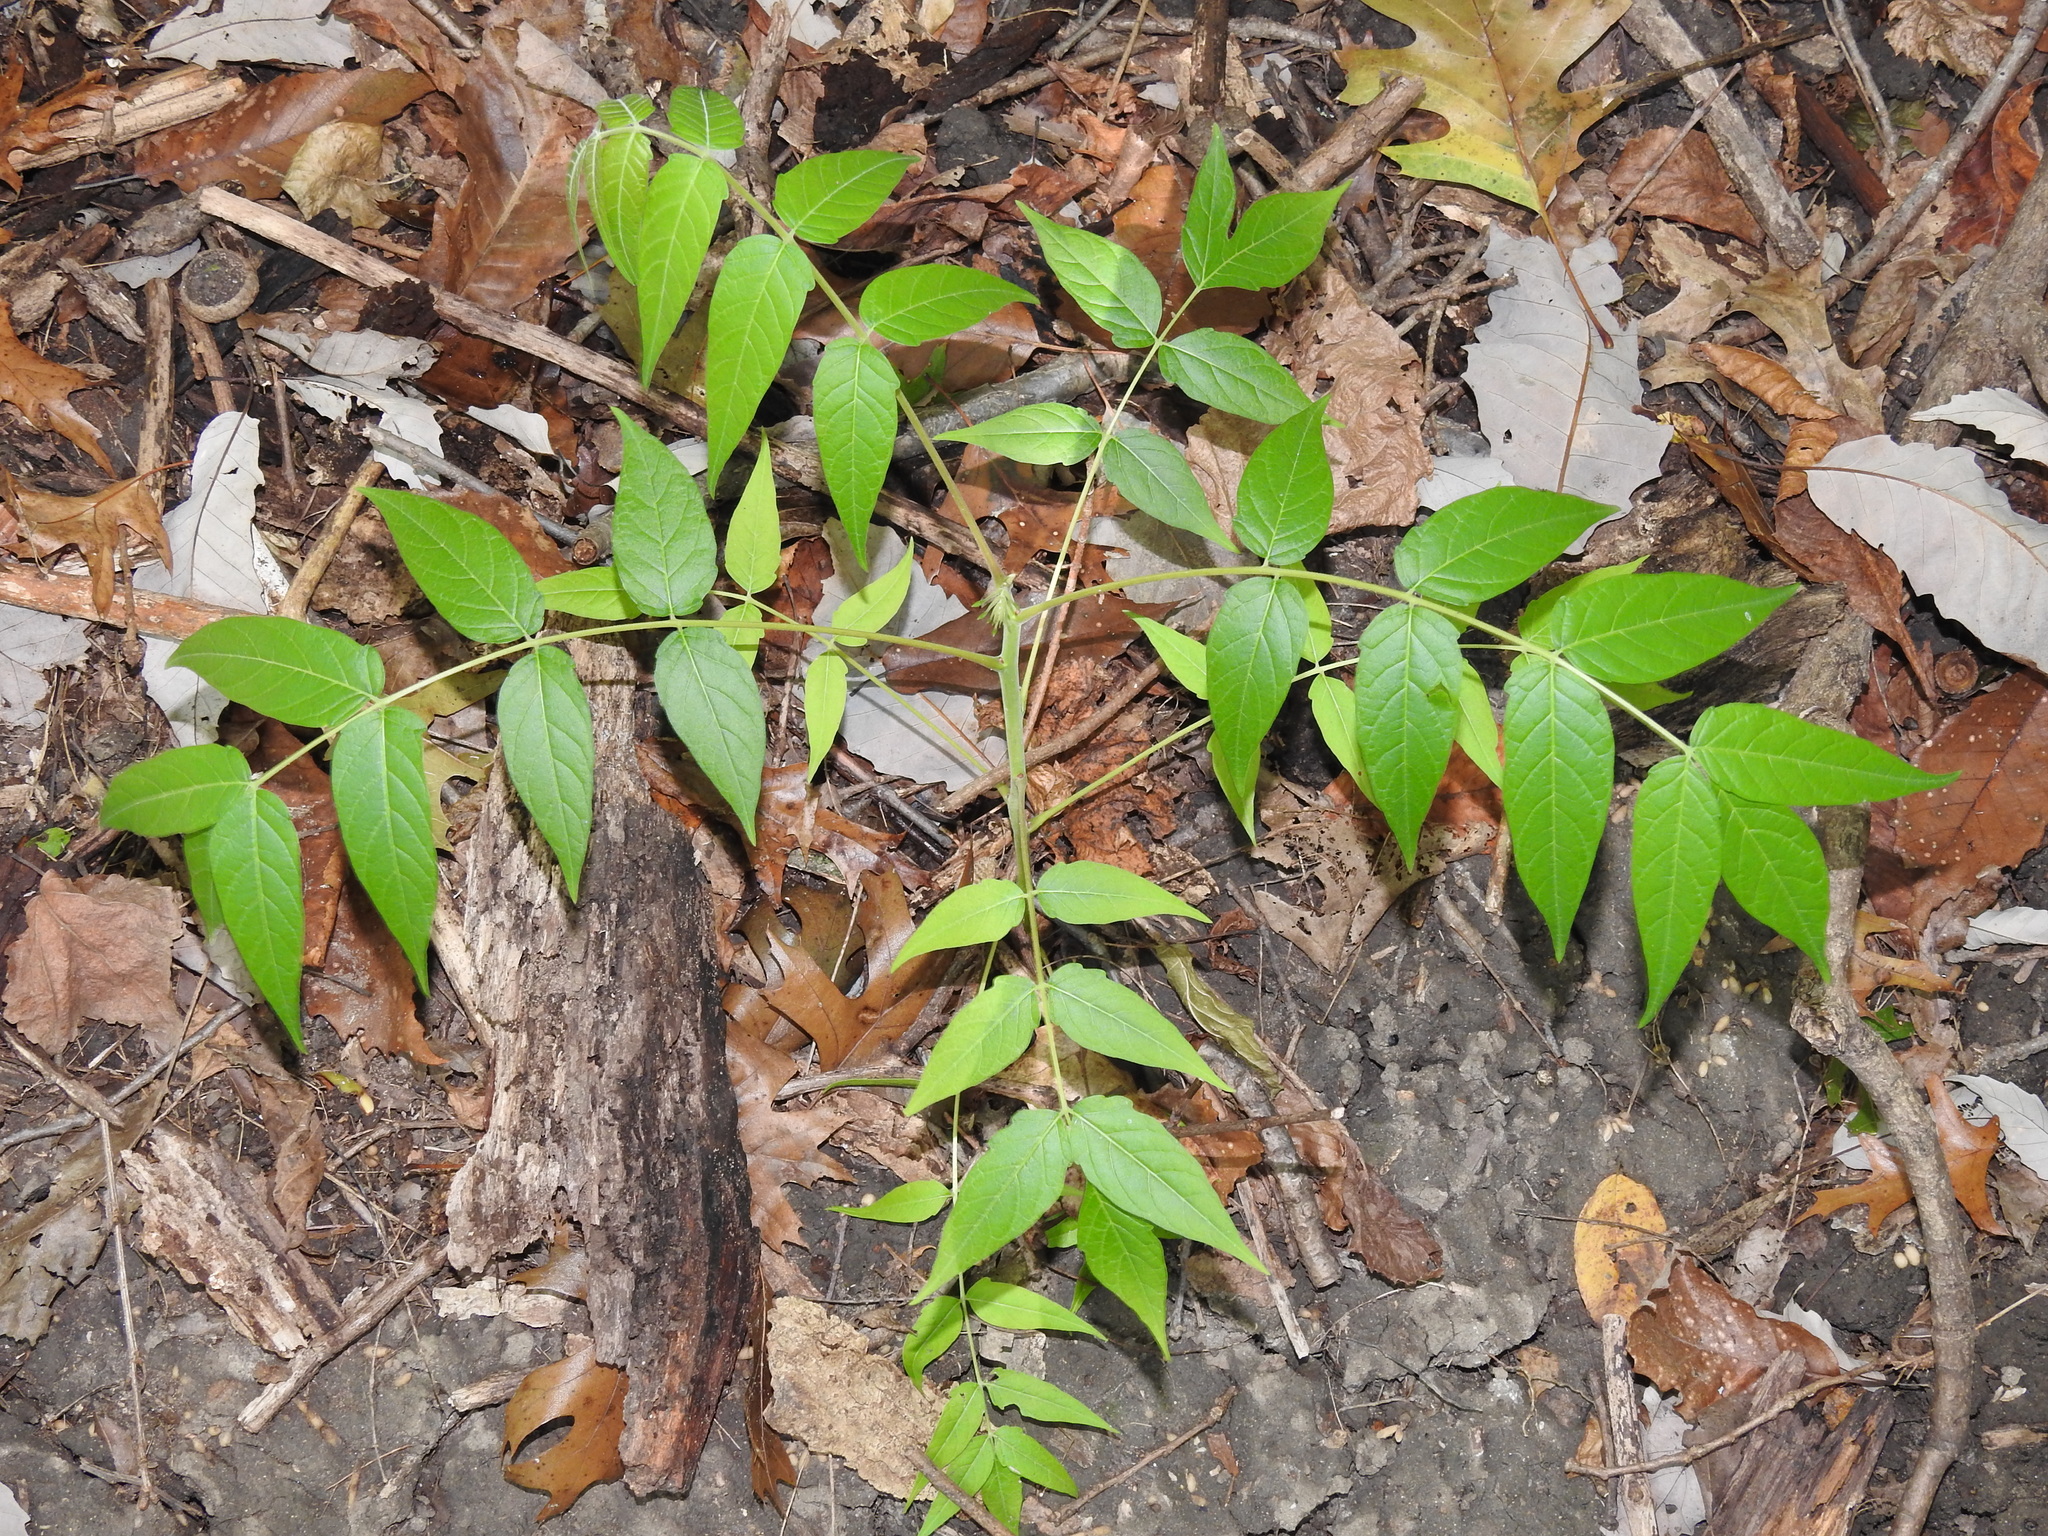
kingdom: Plantae
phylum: Tracheophyta
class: Magnoliopsida
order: Sapindales
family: Simaroubaceae
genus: Ailanthus
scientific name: Ailanthus altissima
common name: Tree-of-heaven
